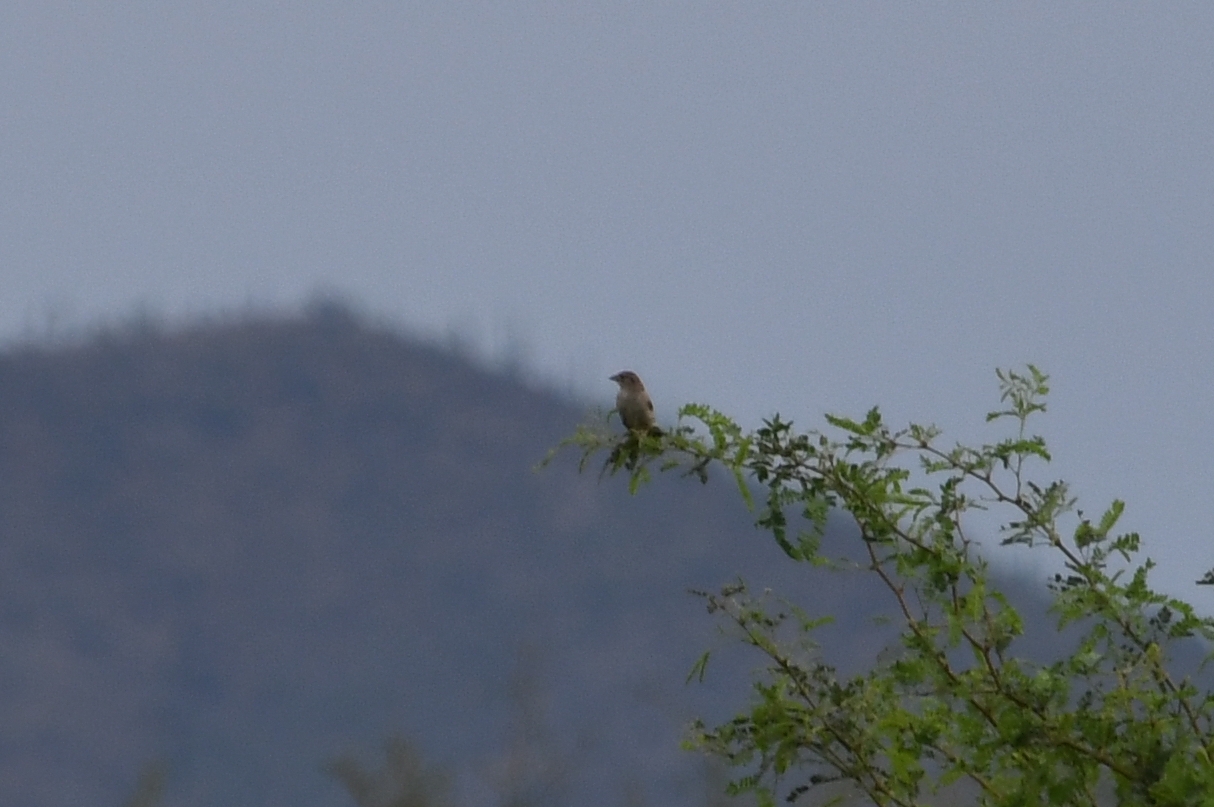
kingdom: Animalia
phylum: Chordata
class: Aves
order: Passeriformes
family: Passerellidae
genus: Peucaea
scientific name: Peucaea cassinii
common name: Cassin's sparrow
